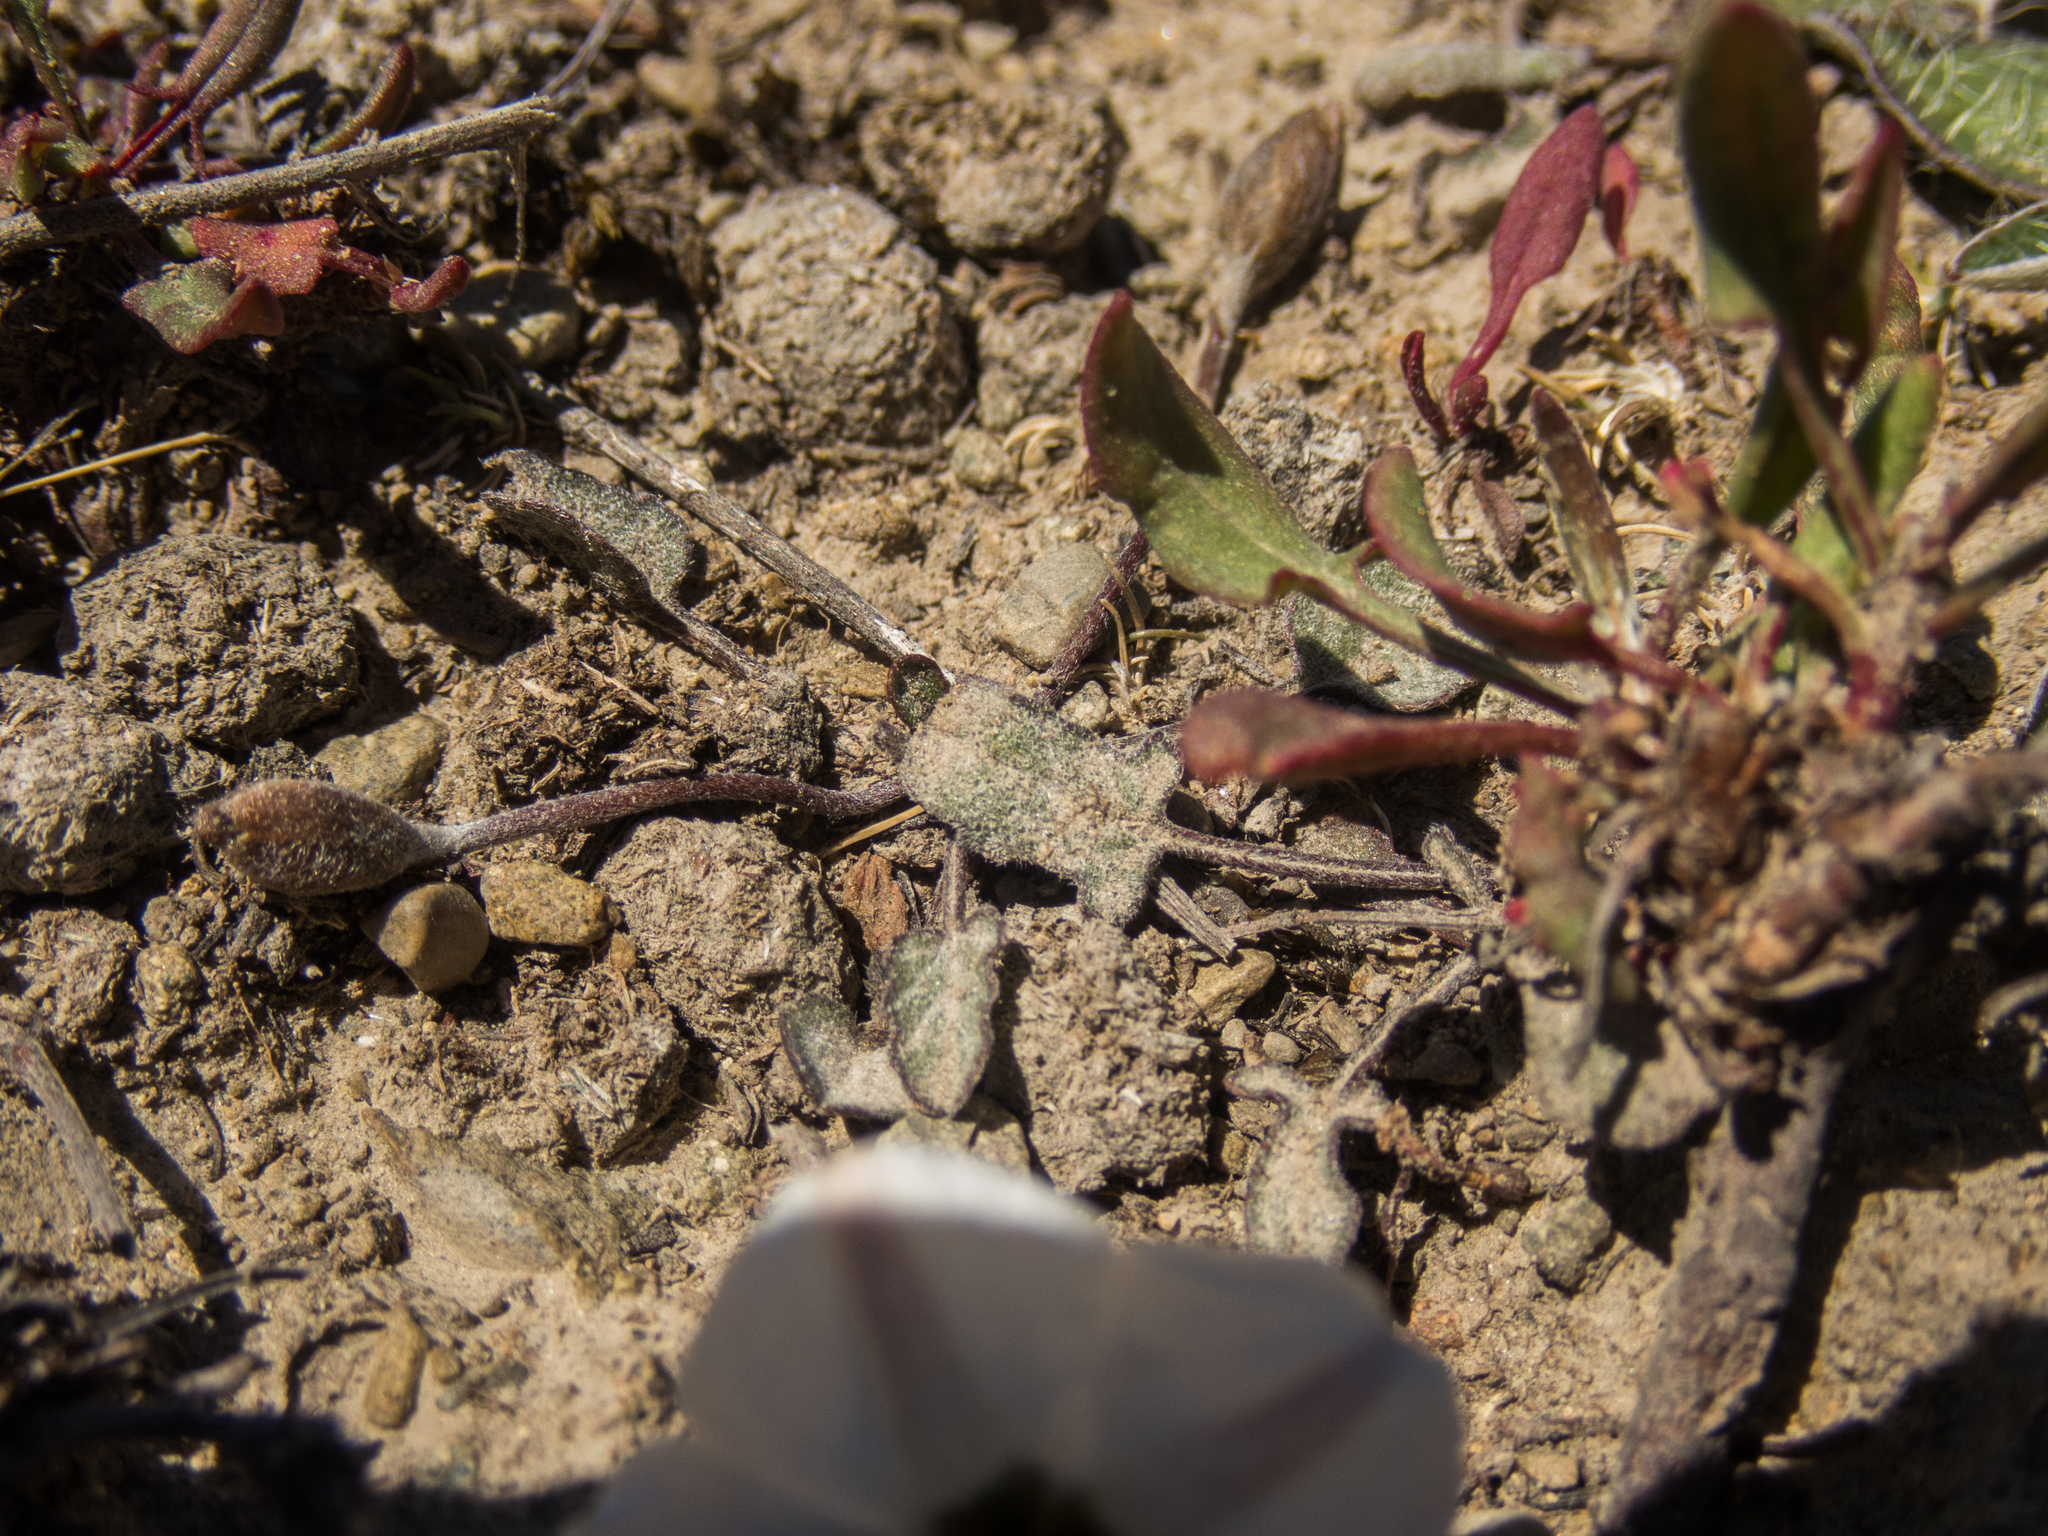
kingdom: Plantae
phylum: Tracheophyta
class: Magnoliopsida
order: Solanales
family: Convolvulaceae
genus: Convolvulus
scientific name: Convolvulus verecundus
